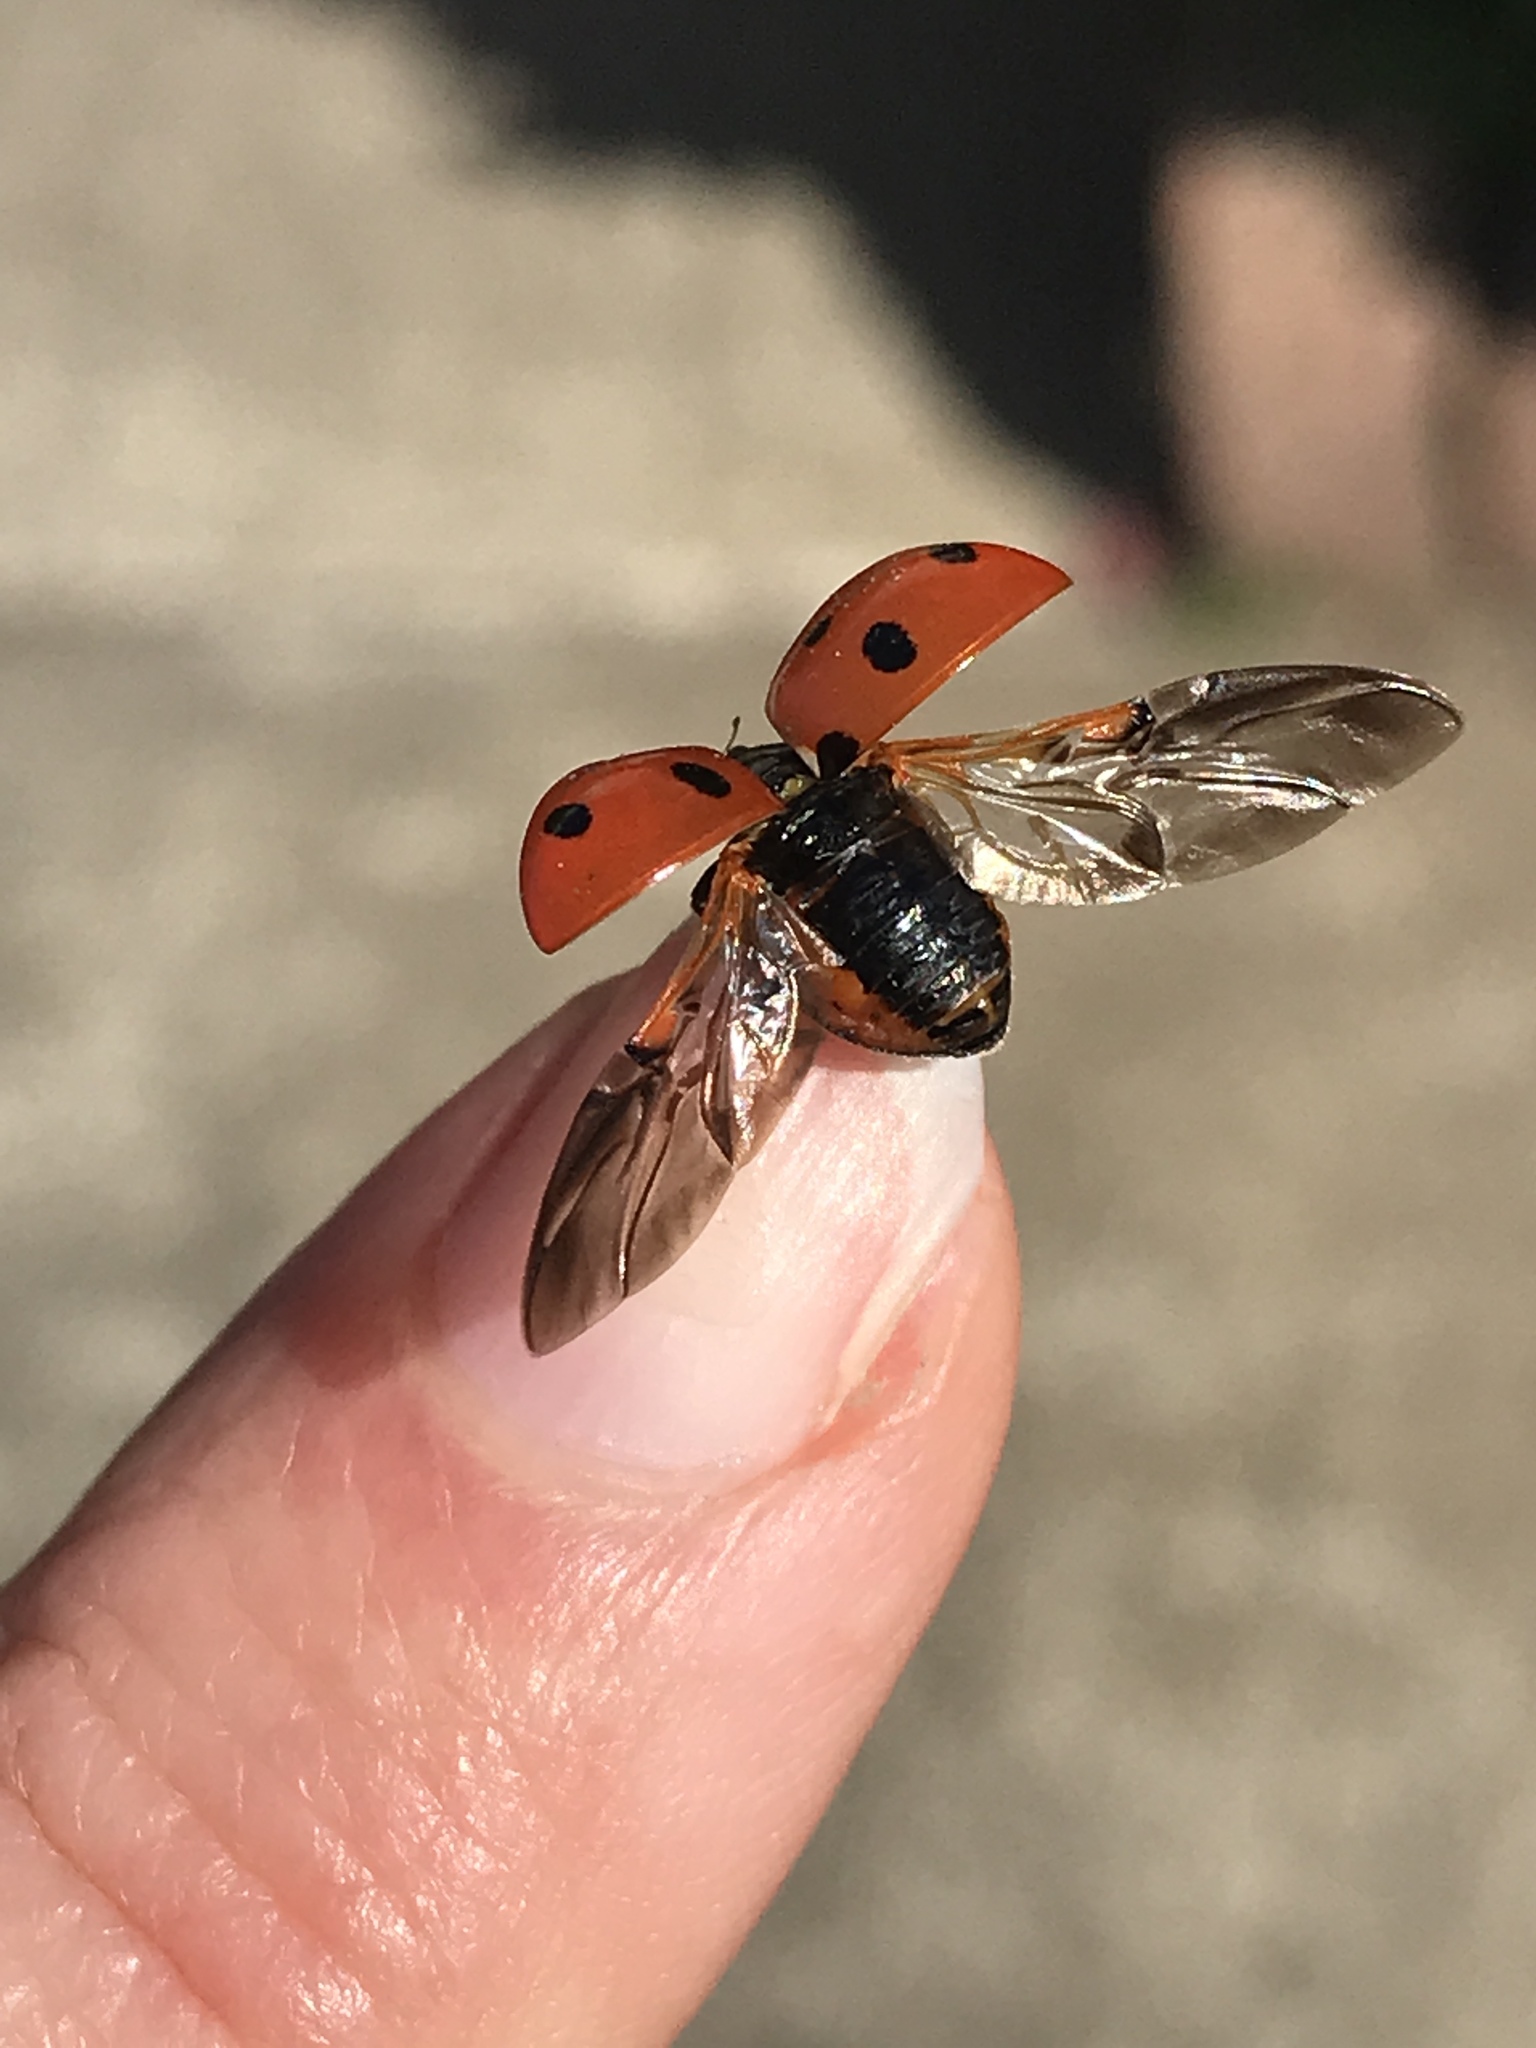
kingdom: Animalia
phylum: Arthropoda
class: Insecta
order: Coleoptera
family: Coccinellidae
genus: Coccinella
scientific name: Coccinella septempunctata
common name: Sevenspotted lady beetle
